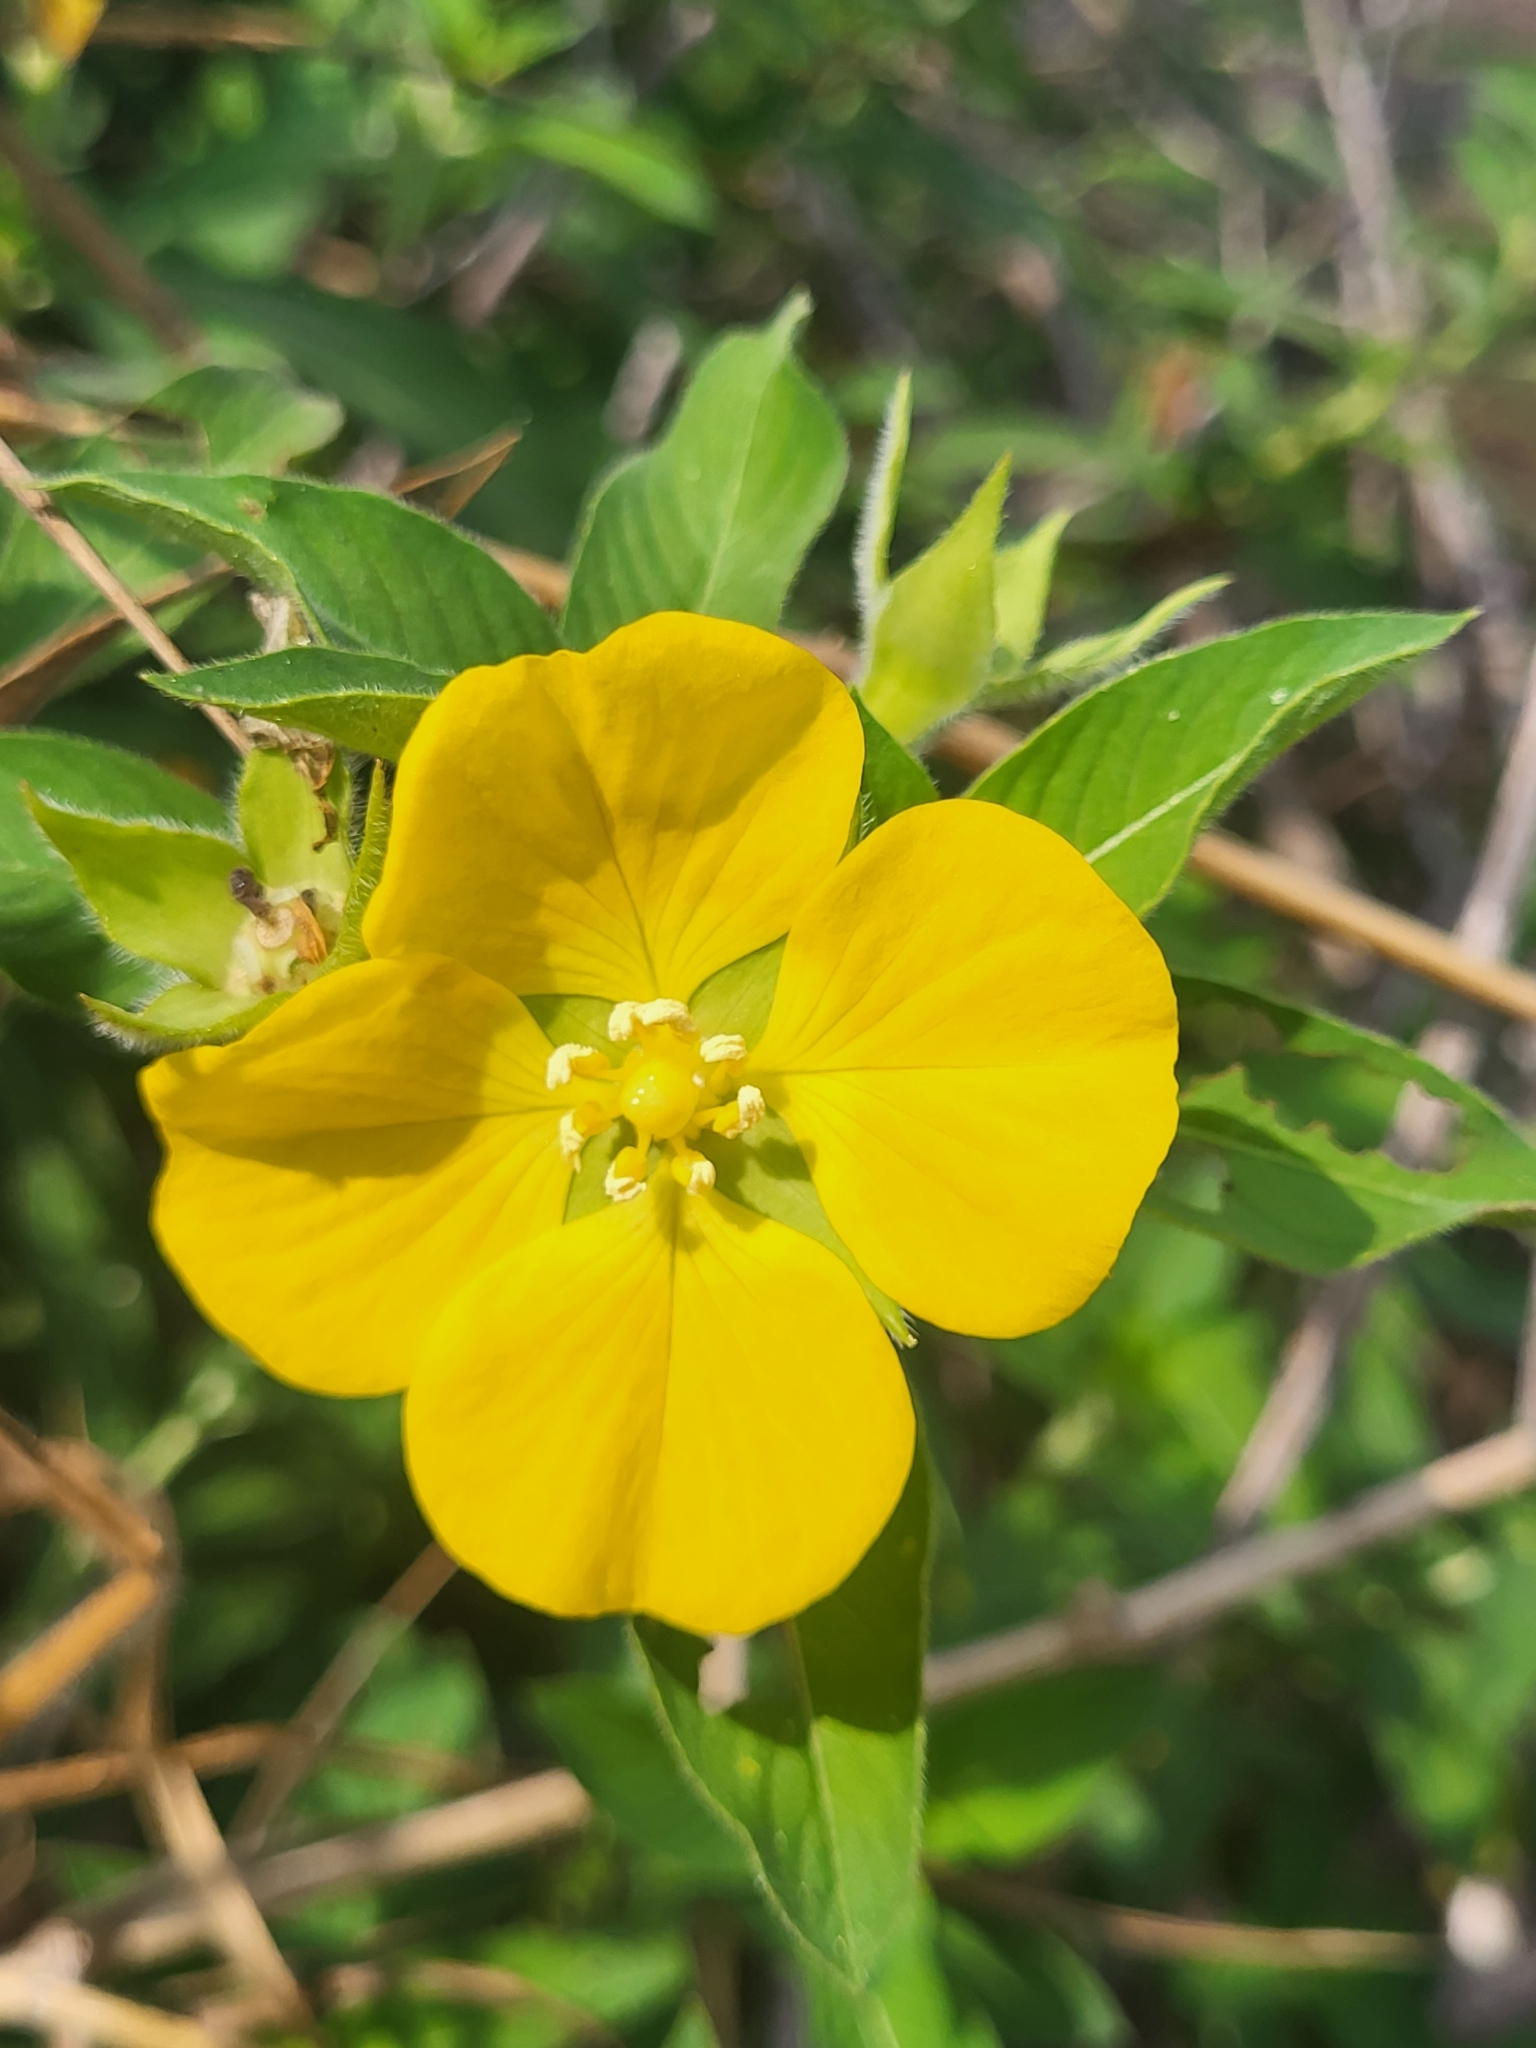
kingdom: Plantae
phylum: Tracheophyta
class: Magnoliopsida
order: Myrtales
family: Onagraceae
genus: Ludwigia
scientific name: Ludwigia peruviana
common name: Peruvian primrose-willow
